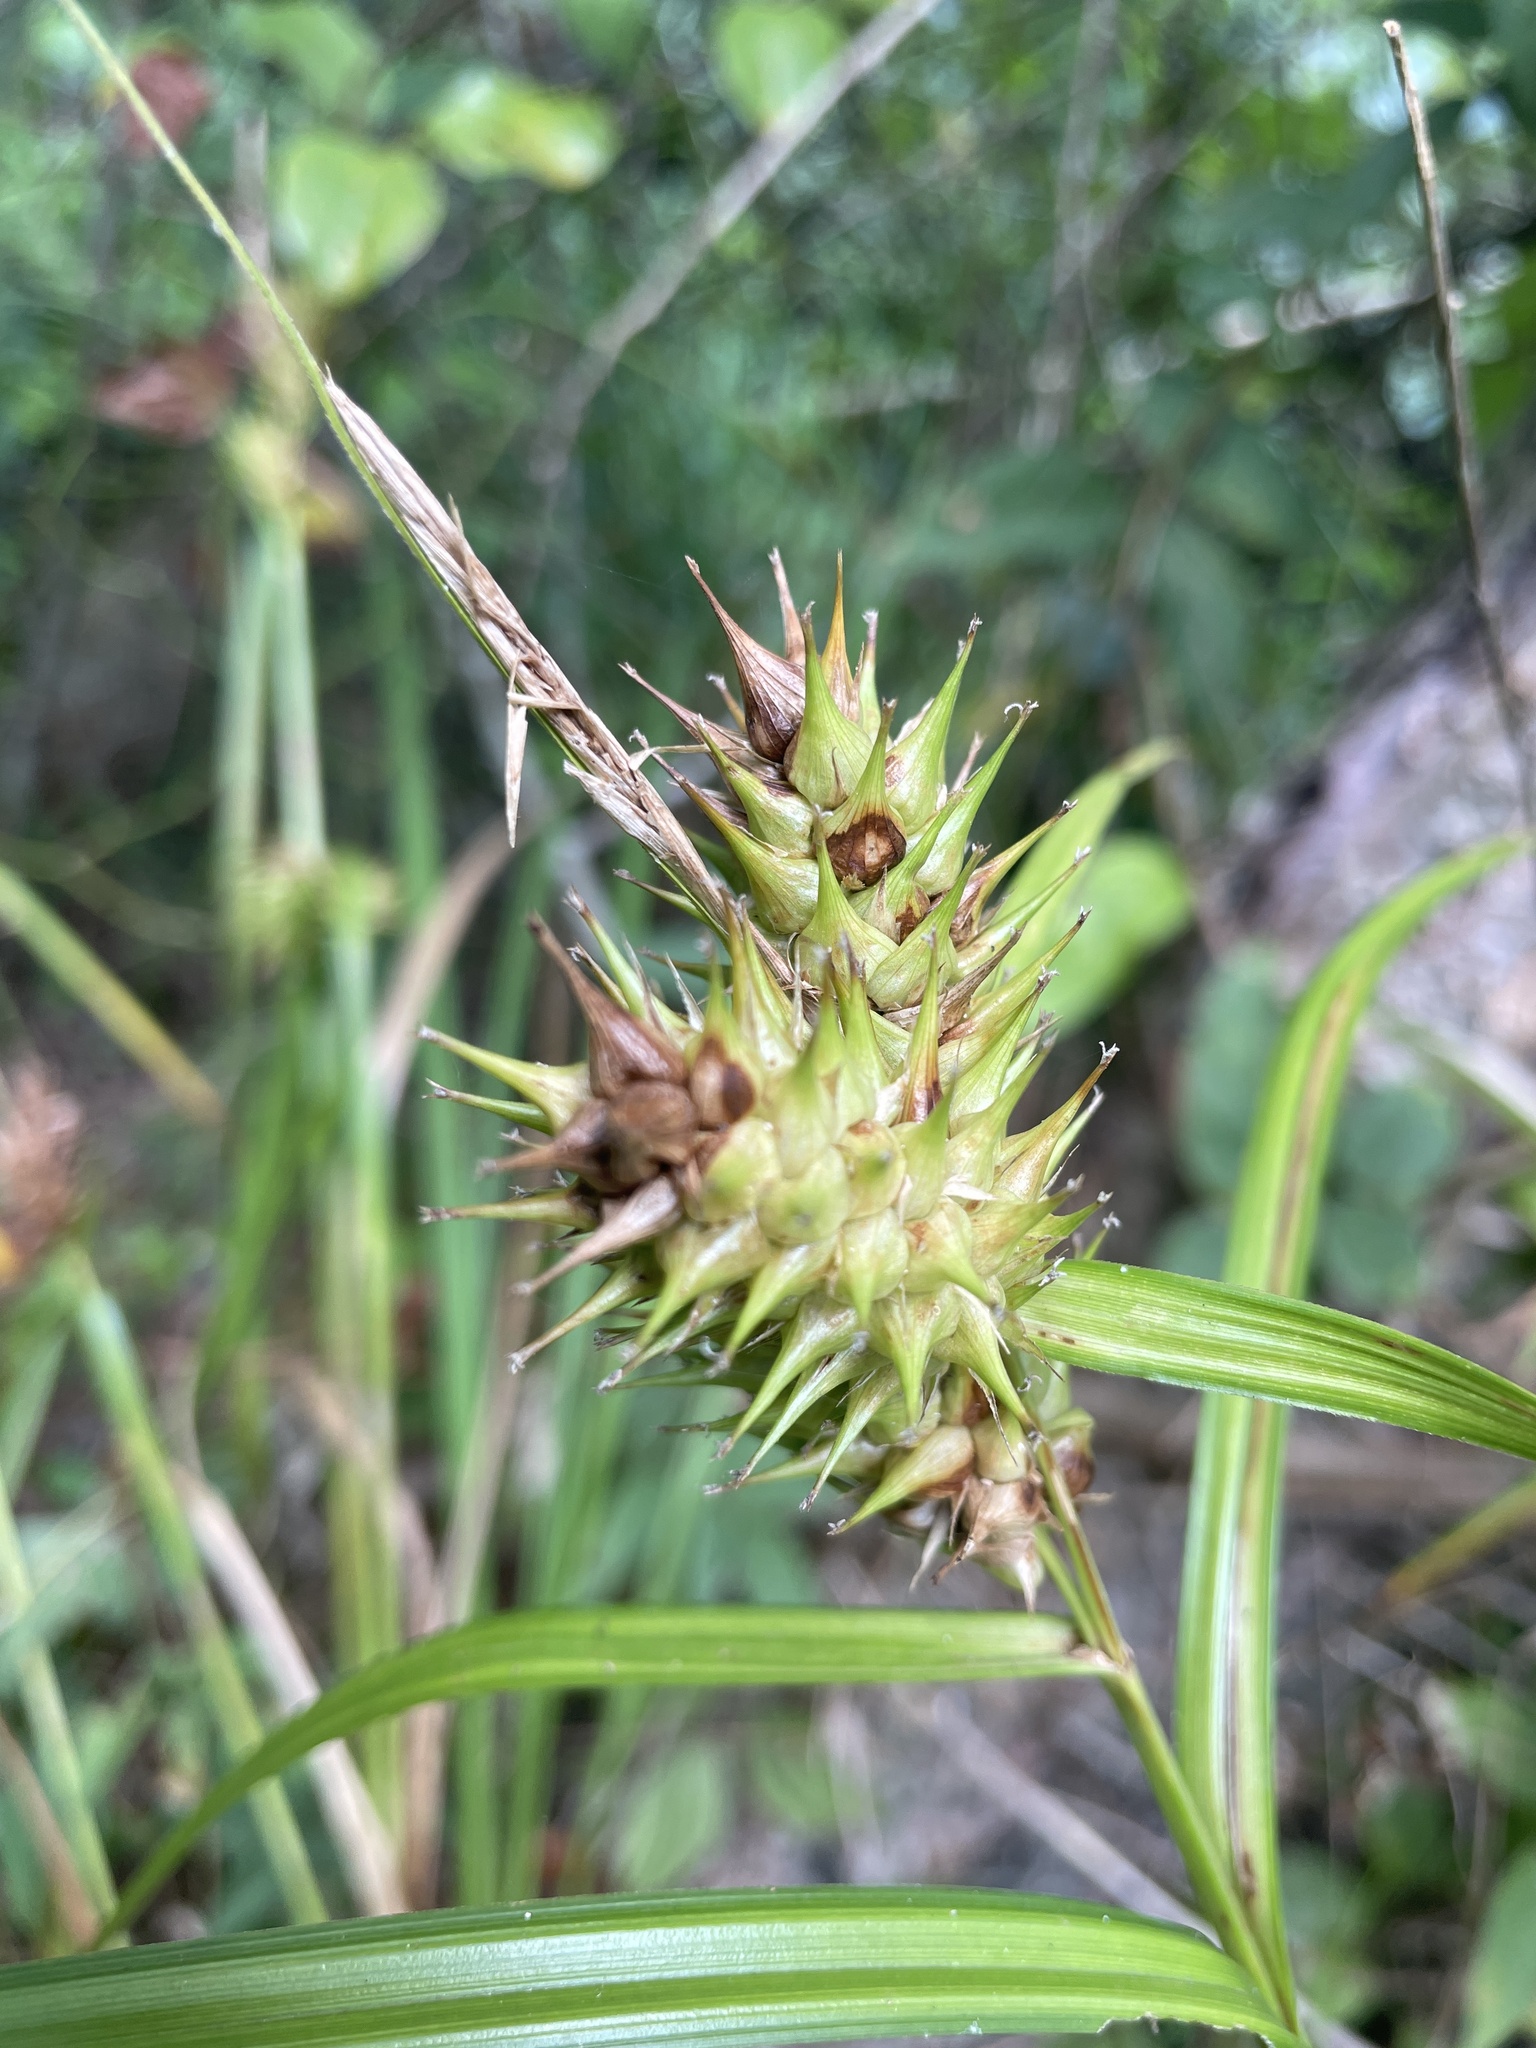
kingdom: Plantae
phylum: Tracheophyta
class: Liliopsida
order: Poales
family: Cyperaceae
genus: Carex
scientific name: Carex lupulina
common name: Hop sedge
